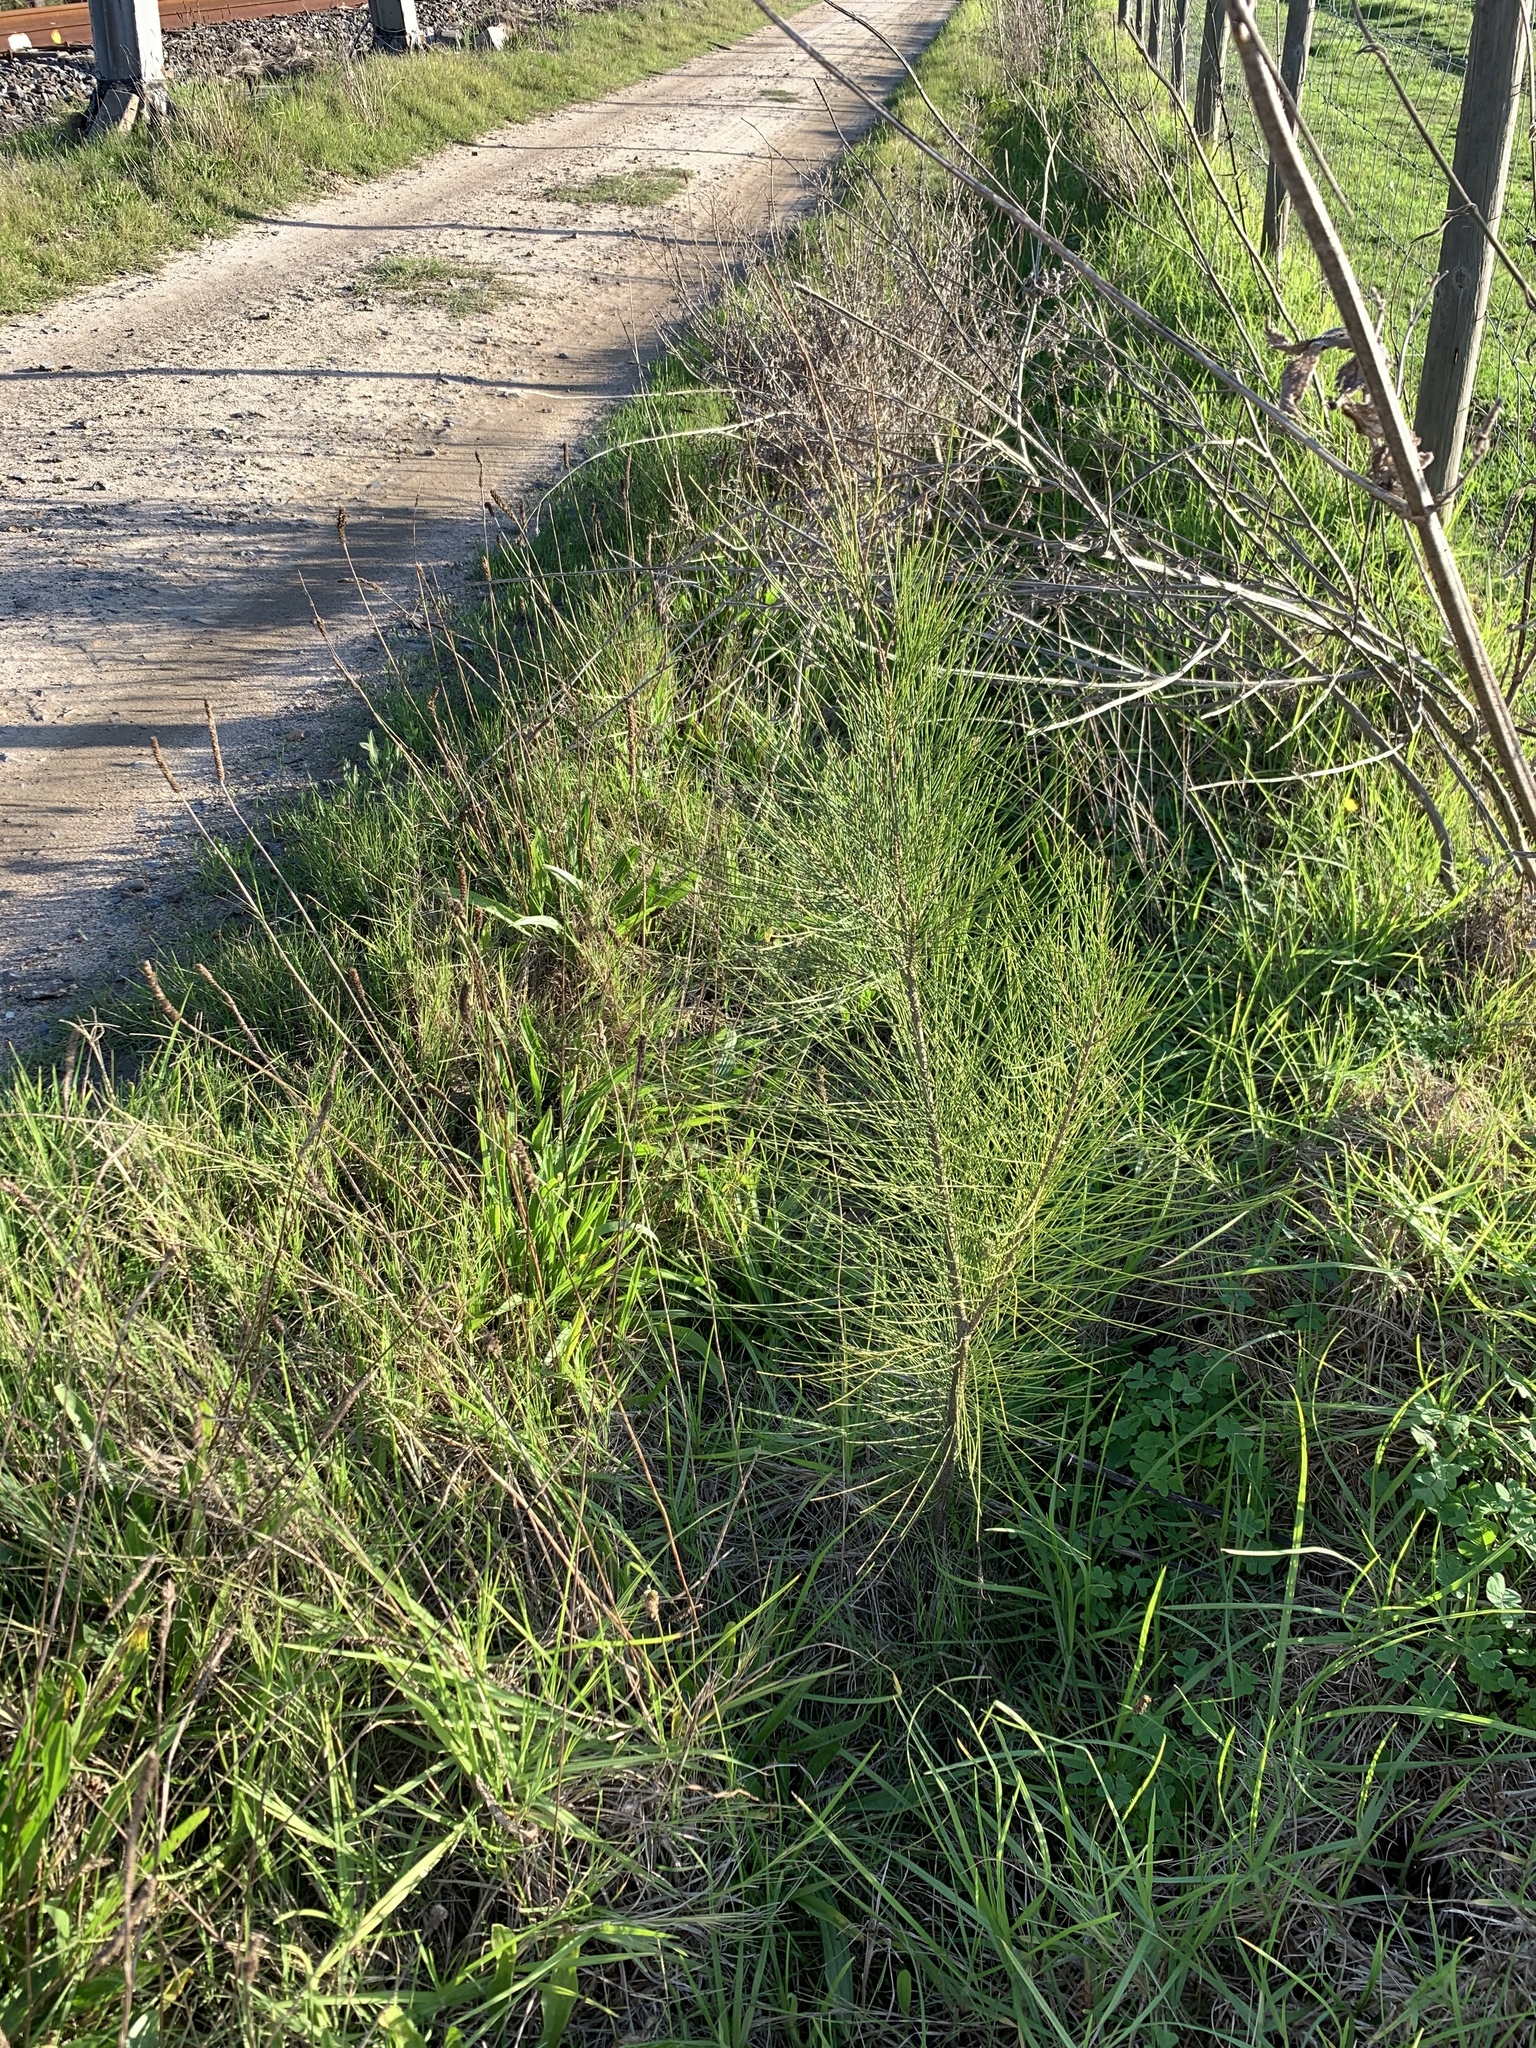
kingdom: Plantae
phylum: Tracheophyta
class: Magnoliopsida
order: Fagales
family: Casuarinaceae
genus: Casuarina
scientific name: Casuarina cunninghamiana
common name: River sheoak
